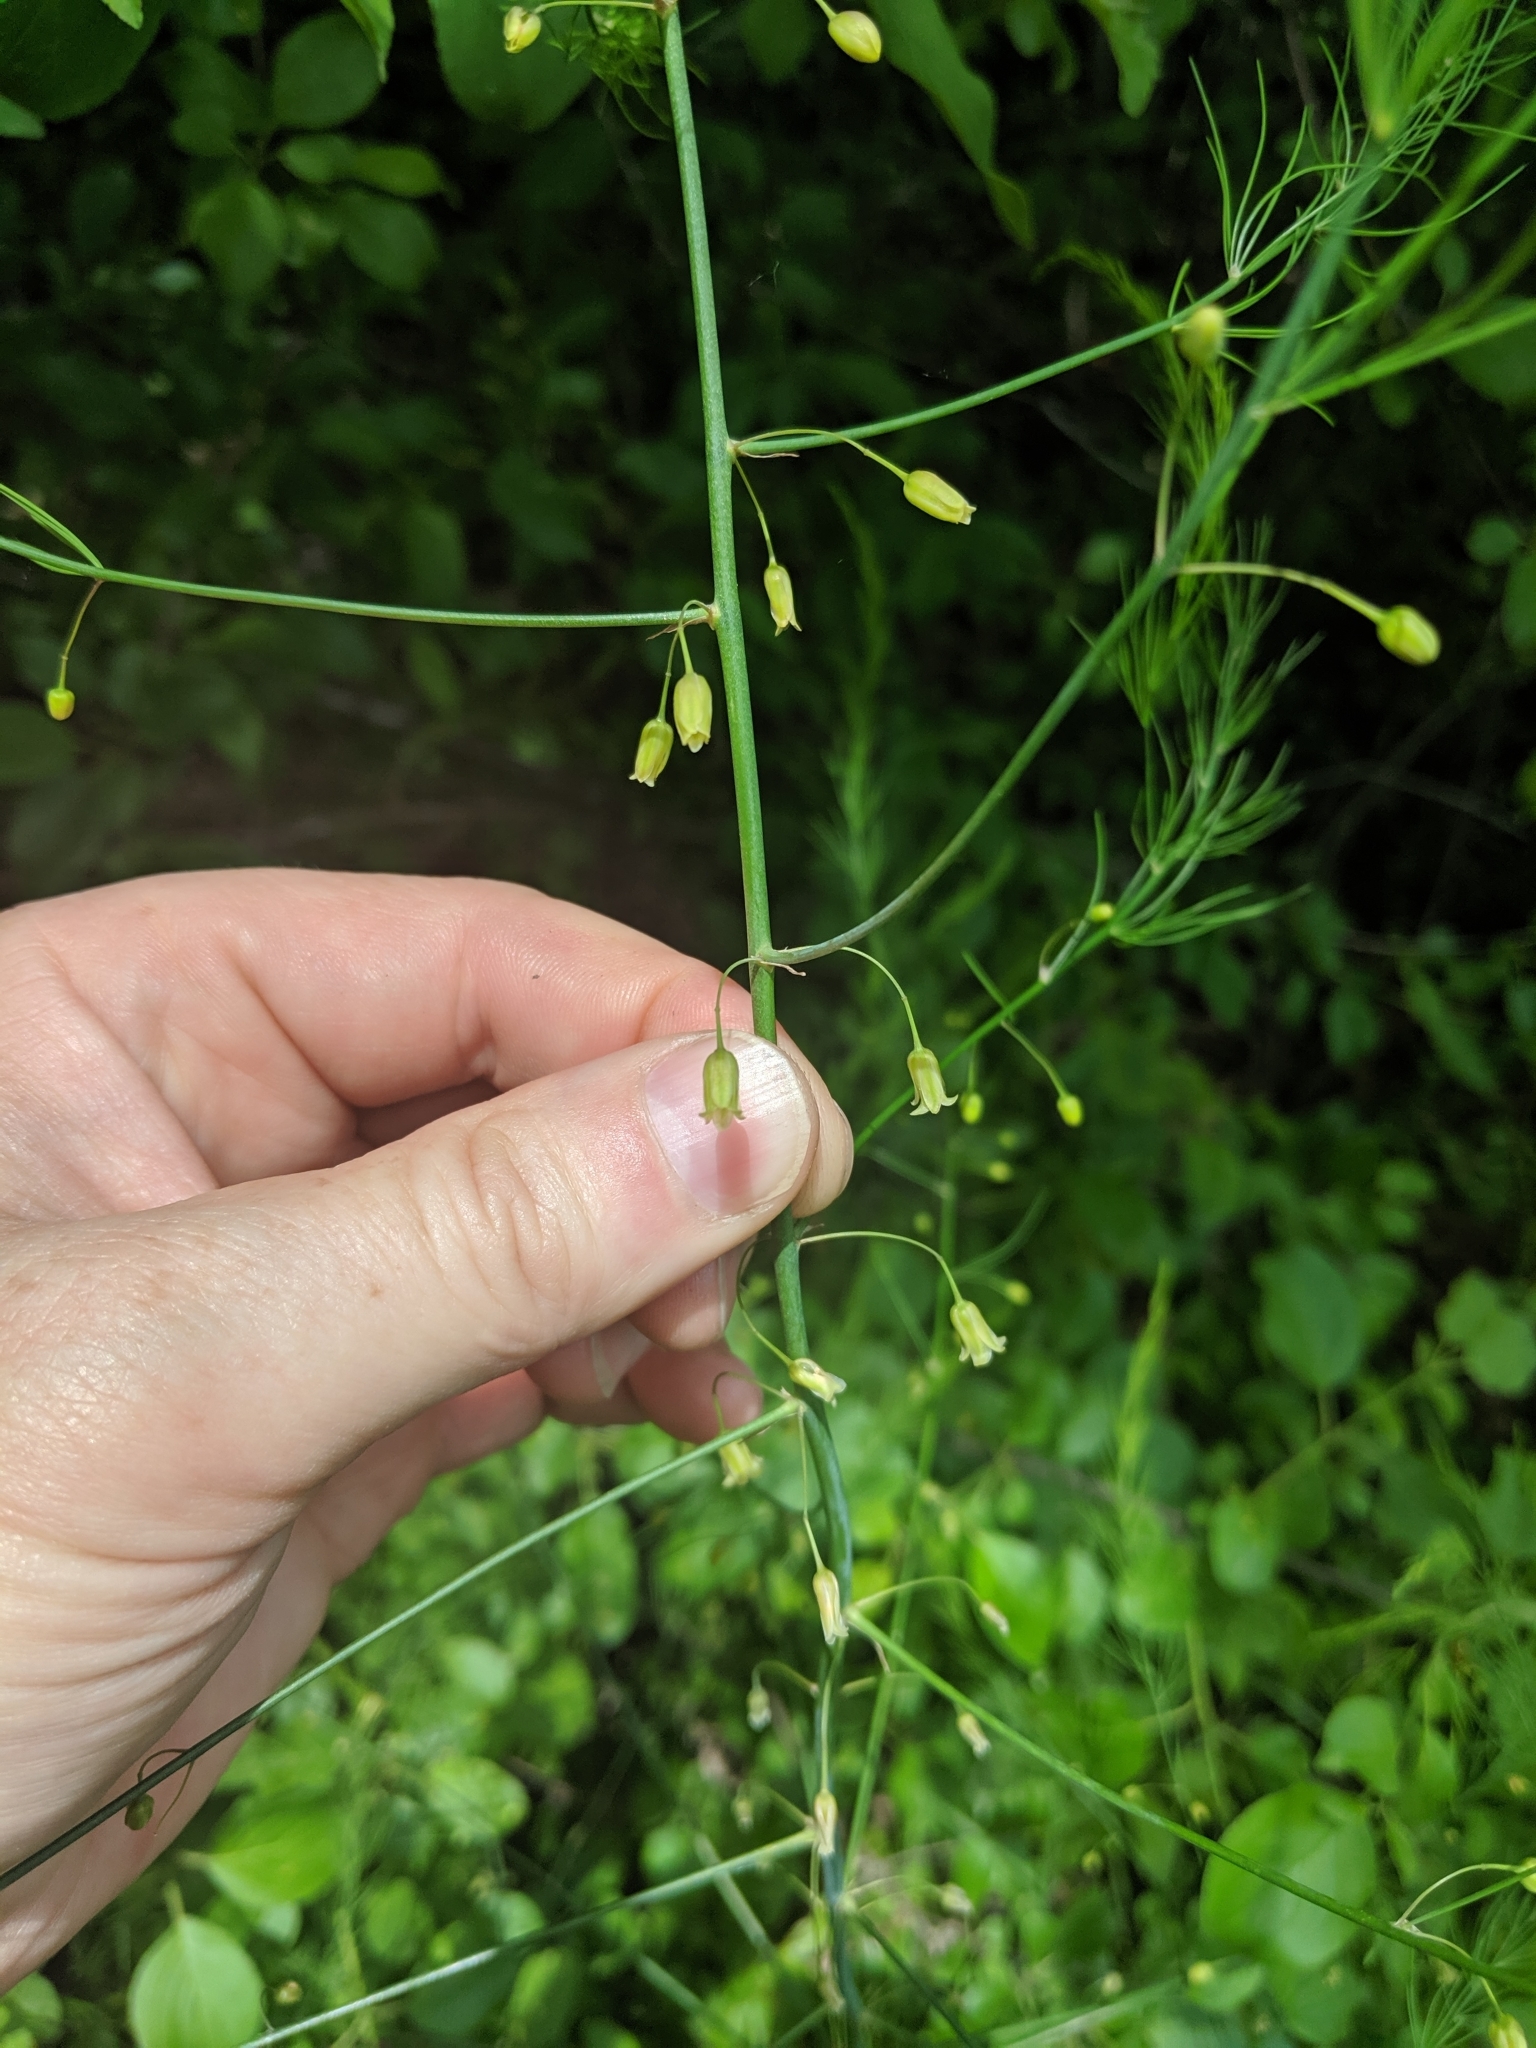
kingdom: Plantae
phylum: Tracheophyta
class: Liliopsida
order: Asparagales
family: Asparagaceae
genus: Asparagus
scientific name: Asparagus officinalis
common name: Garden asparagus
